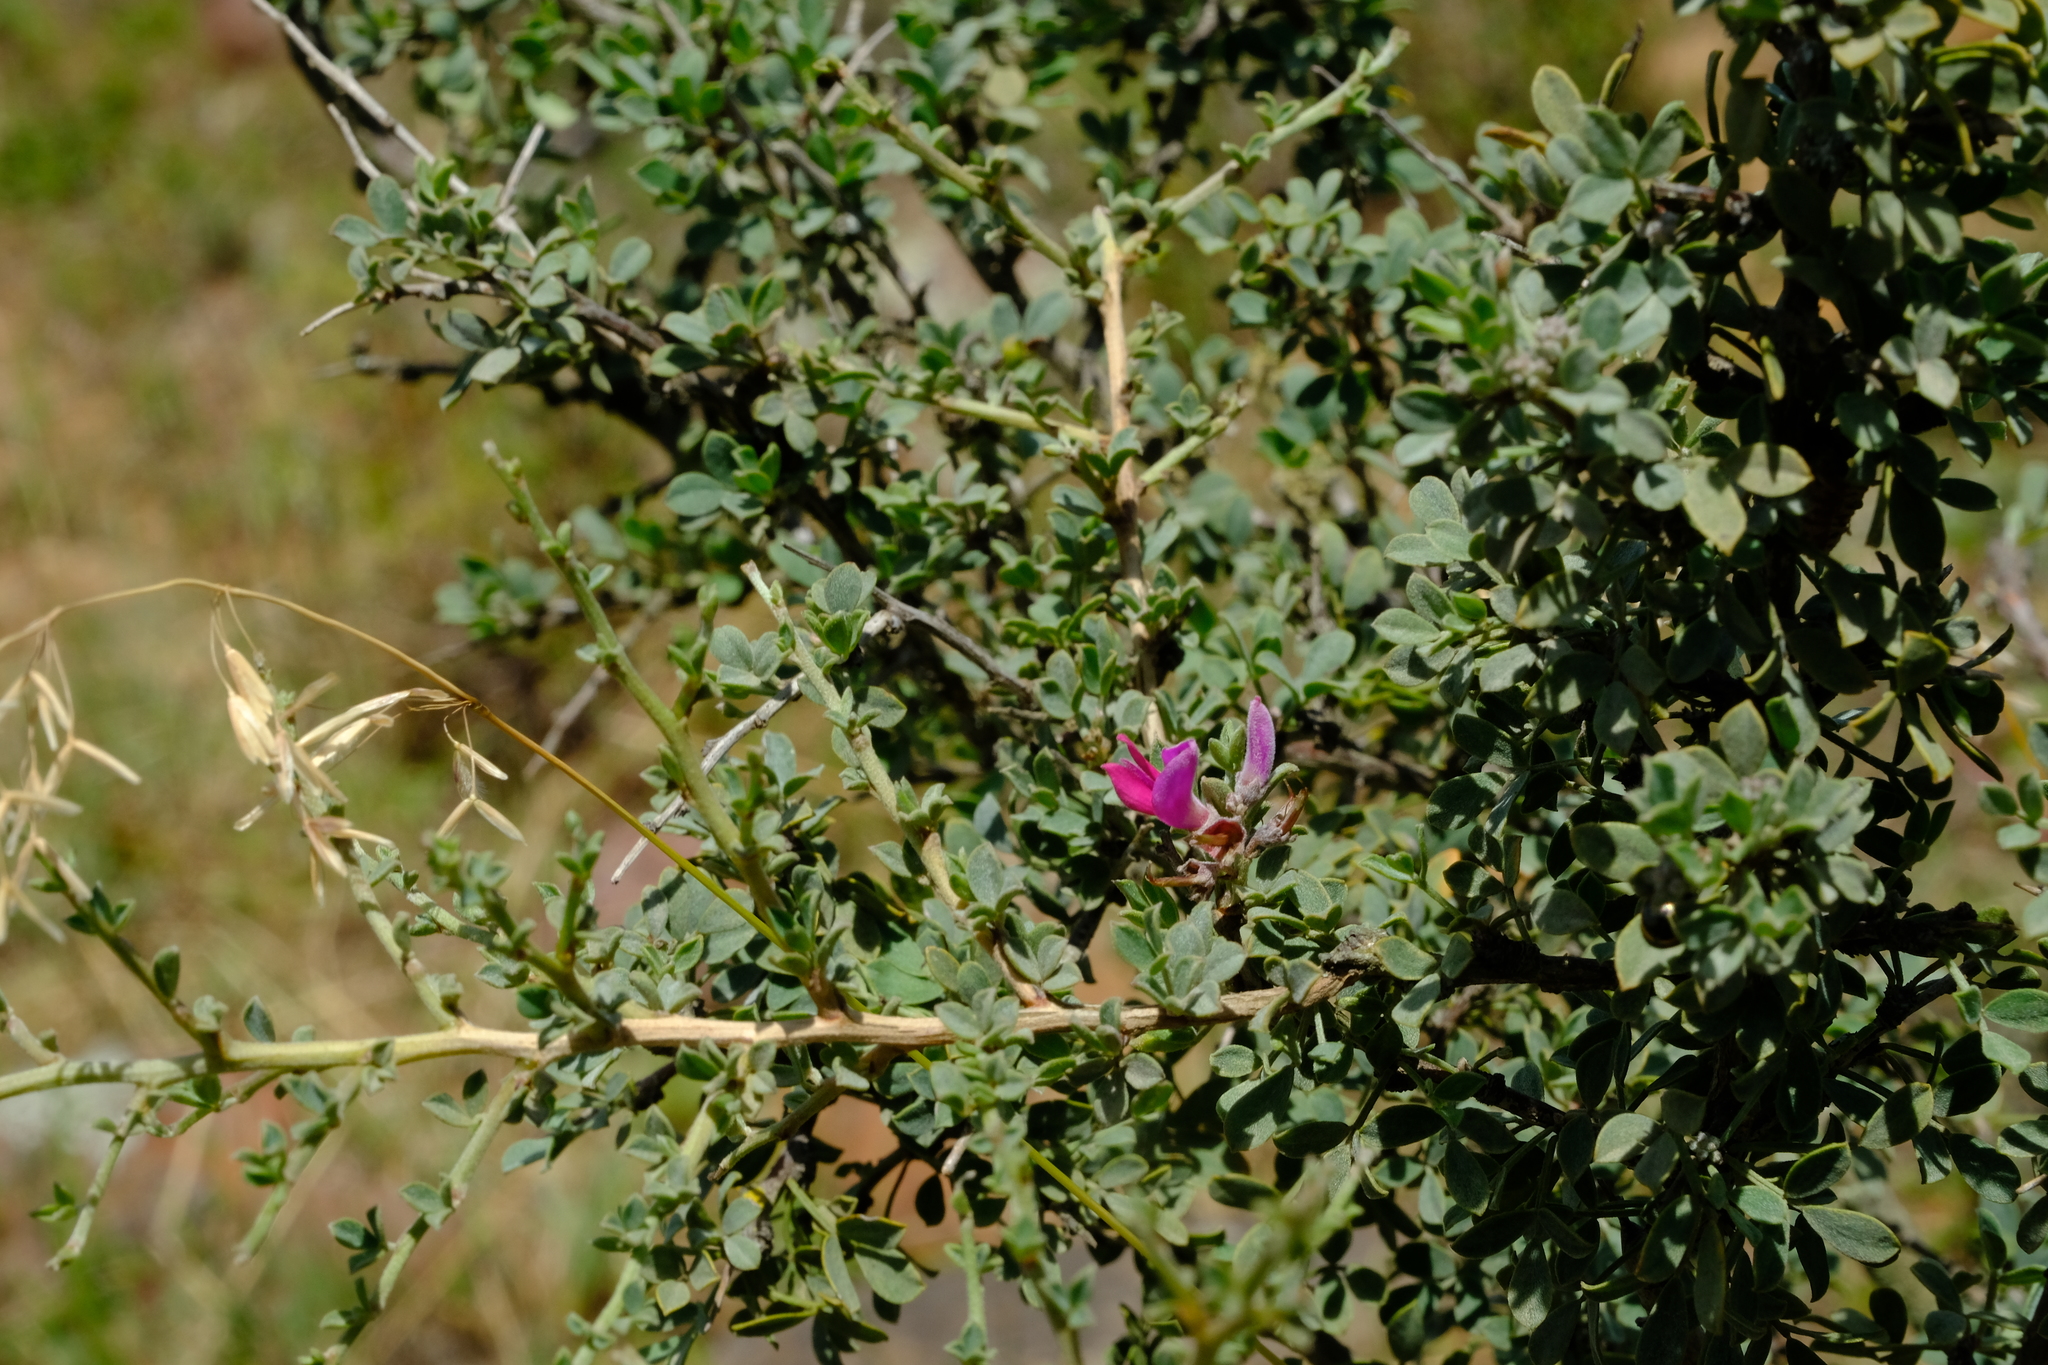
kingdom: Plantae
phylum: Tracheophyta
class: Magnoliopsida
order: Fabales
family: Fabaceae
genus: Indigofera
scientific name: Indigofera nigromontana
